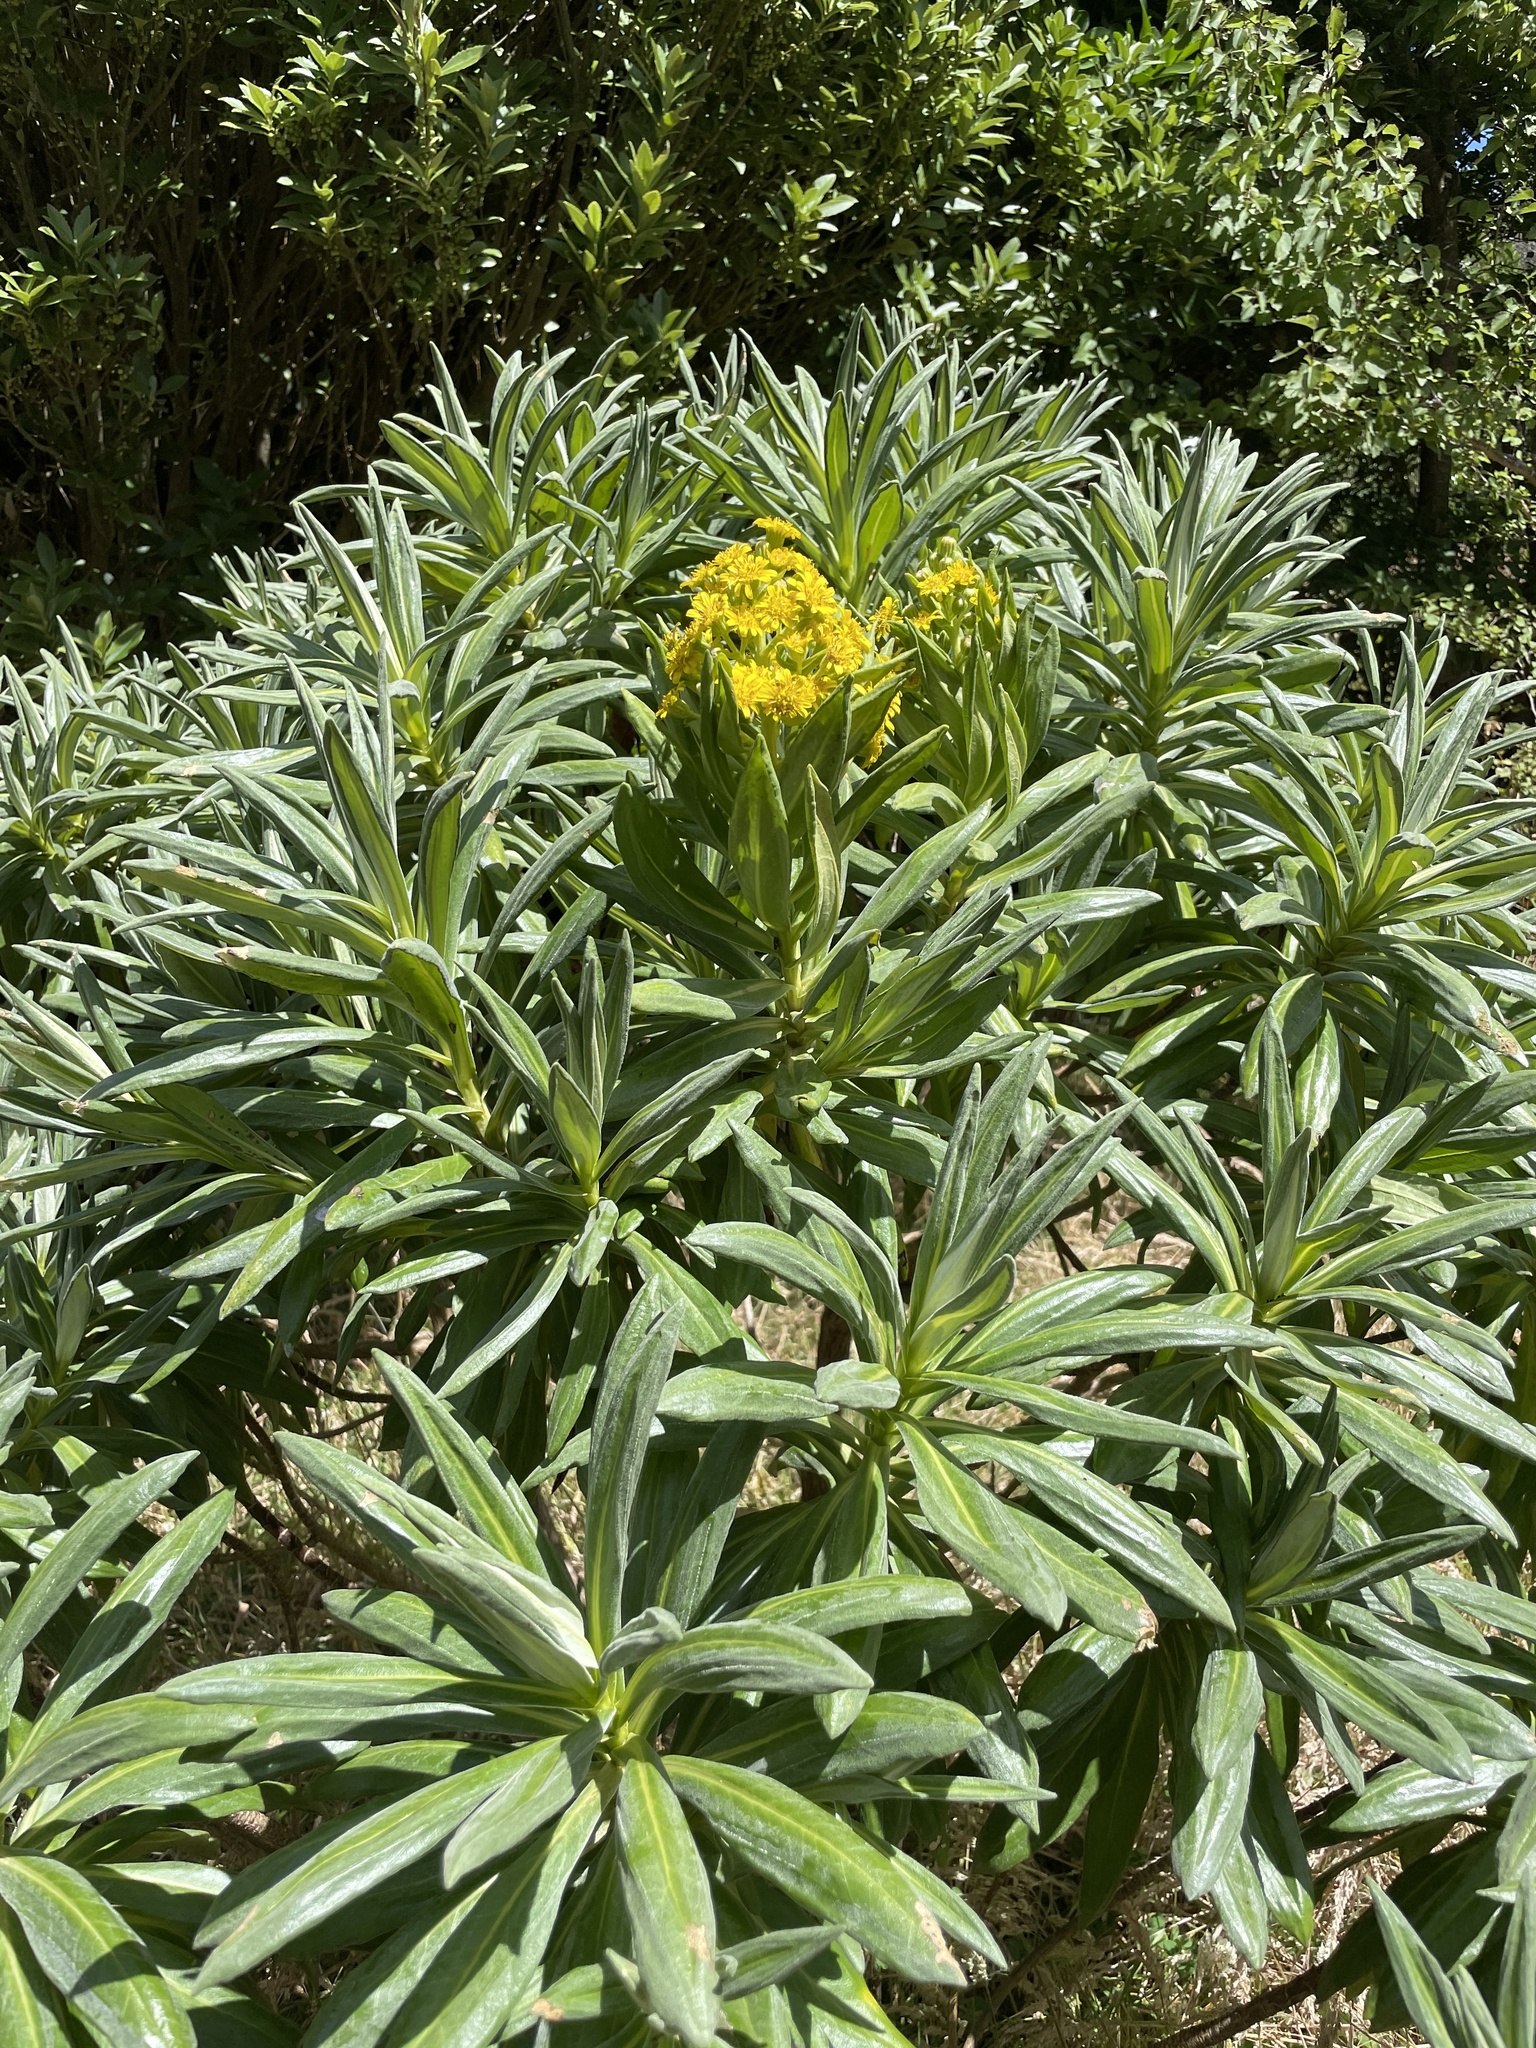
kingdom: Plantae
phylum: Tracheophyta
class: Magnoliopsida
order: Asterales
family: Asteraceae
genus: Brachyglottis
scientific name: Brachyglottis huntii
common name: Chatham island christmas tree
